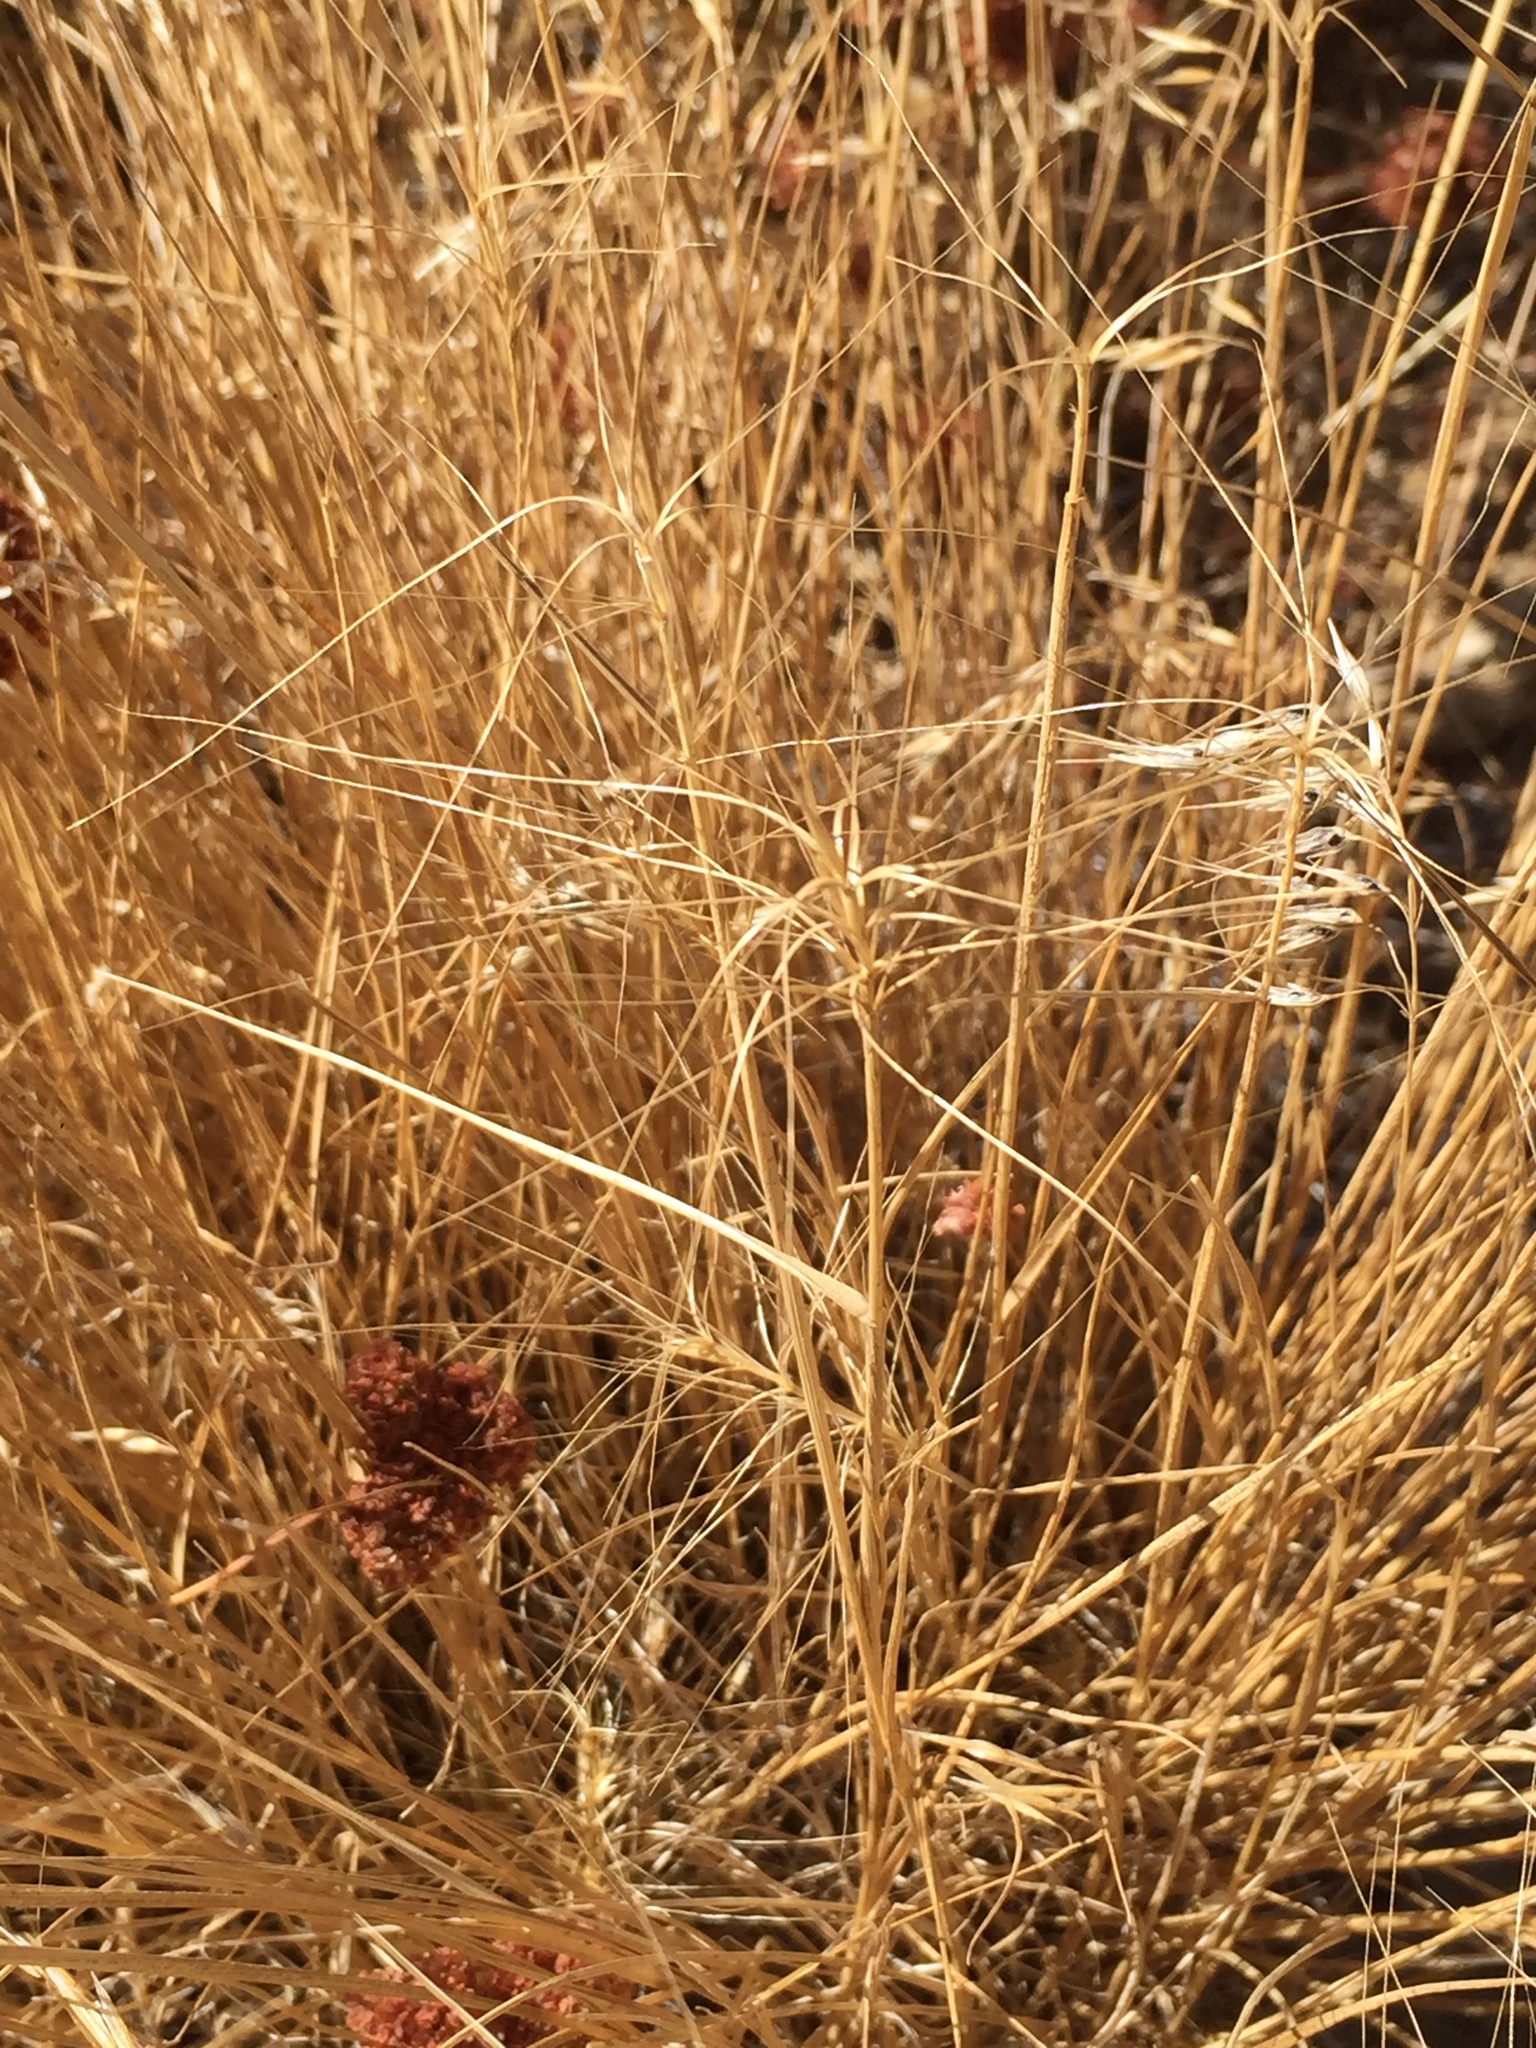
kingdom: Plantae
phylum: Tracheophyta
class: Liliopsida
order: Poales
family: Poaceae
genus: Elymus
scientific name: Elymus elymoides
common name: Bottlebrush squirreltail
